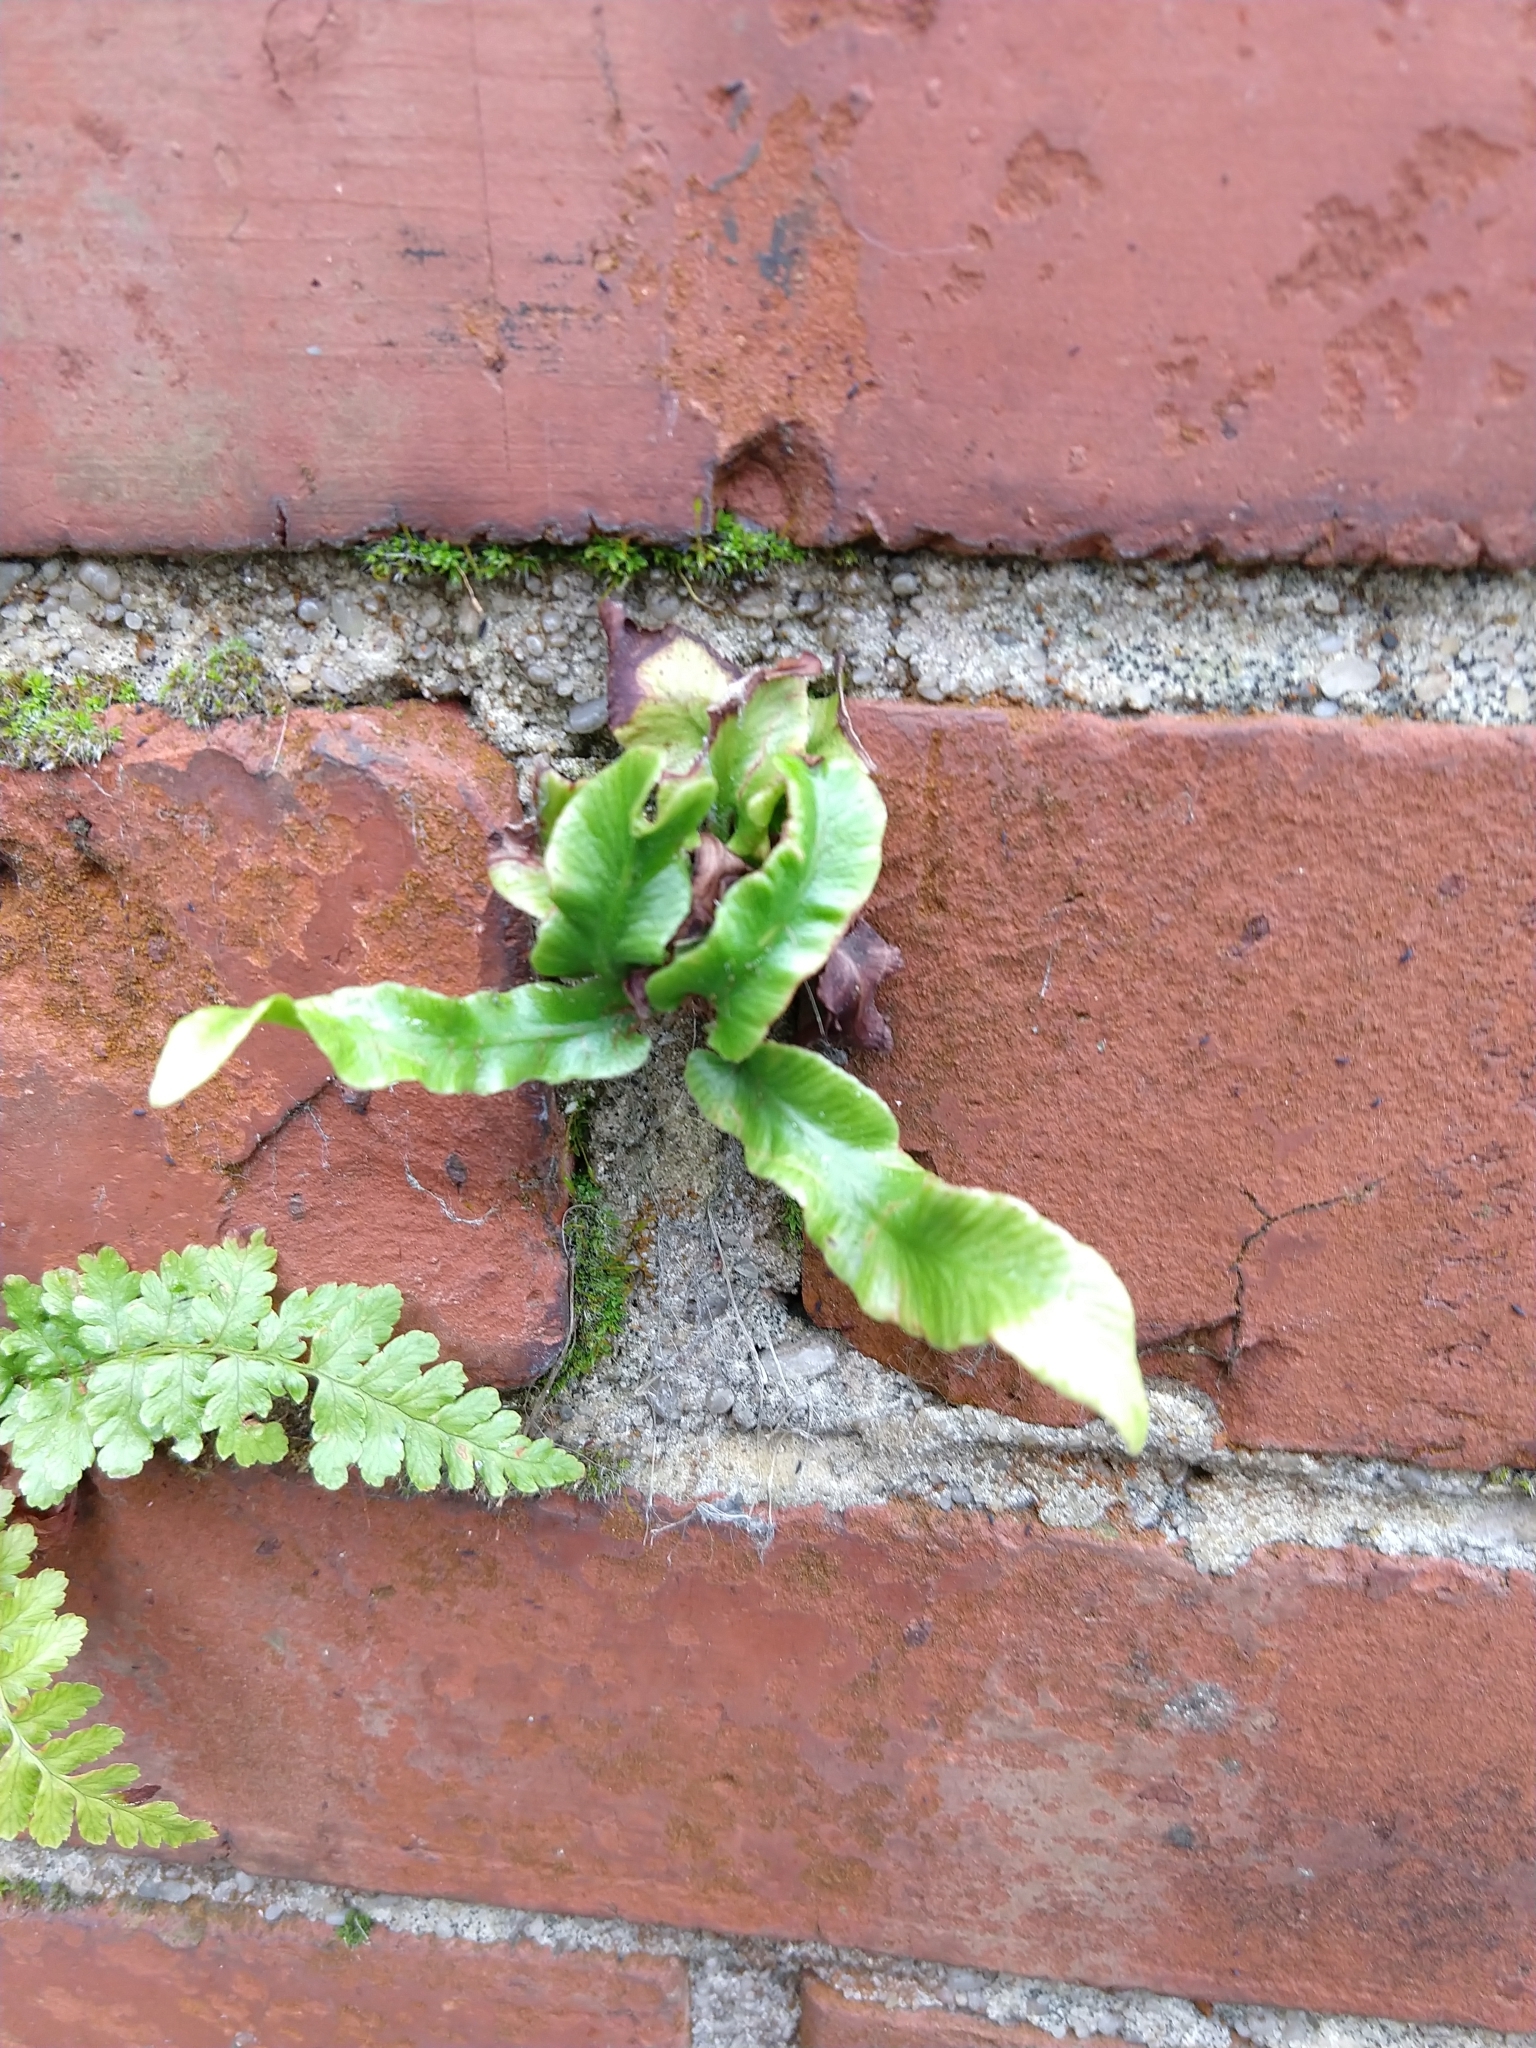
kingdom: Plantae
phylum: Tracheophyta
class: Polypodiopsida
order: Polypodiales
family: Aspleniaceae
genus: Asplenium
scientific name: Asplenium scolopendrium
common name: Hart's-tongue fern
